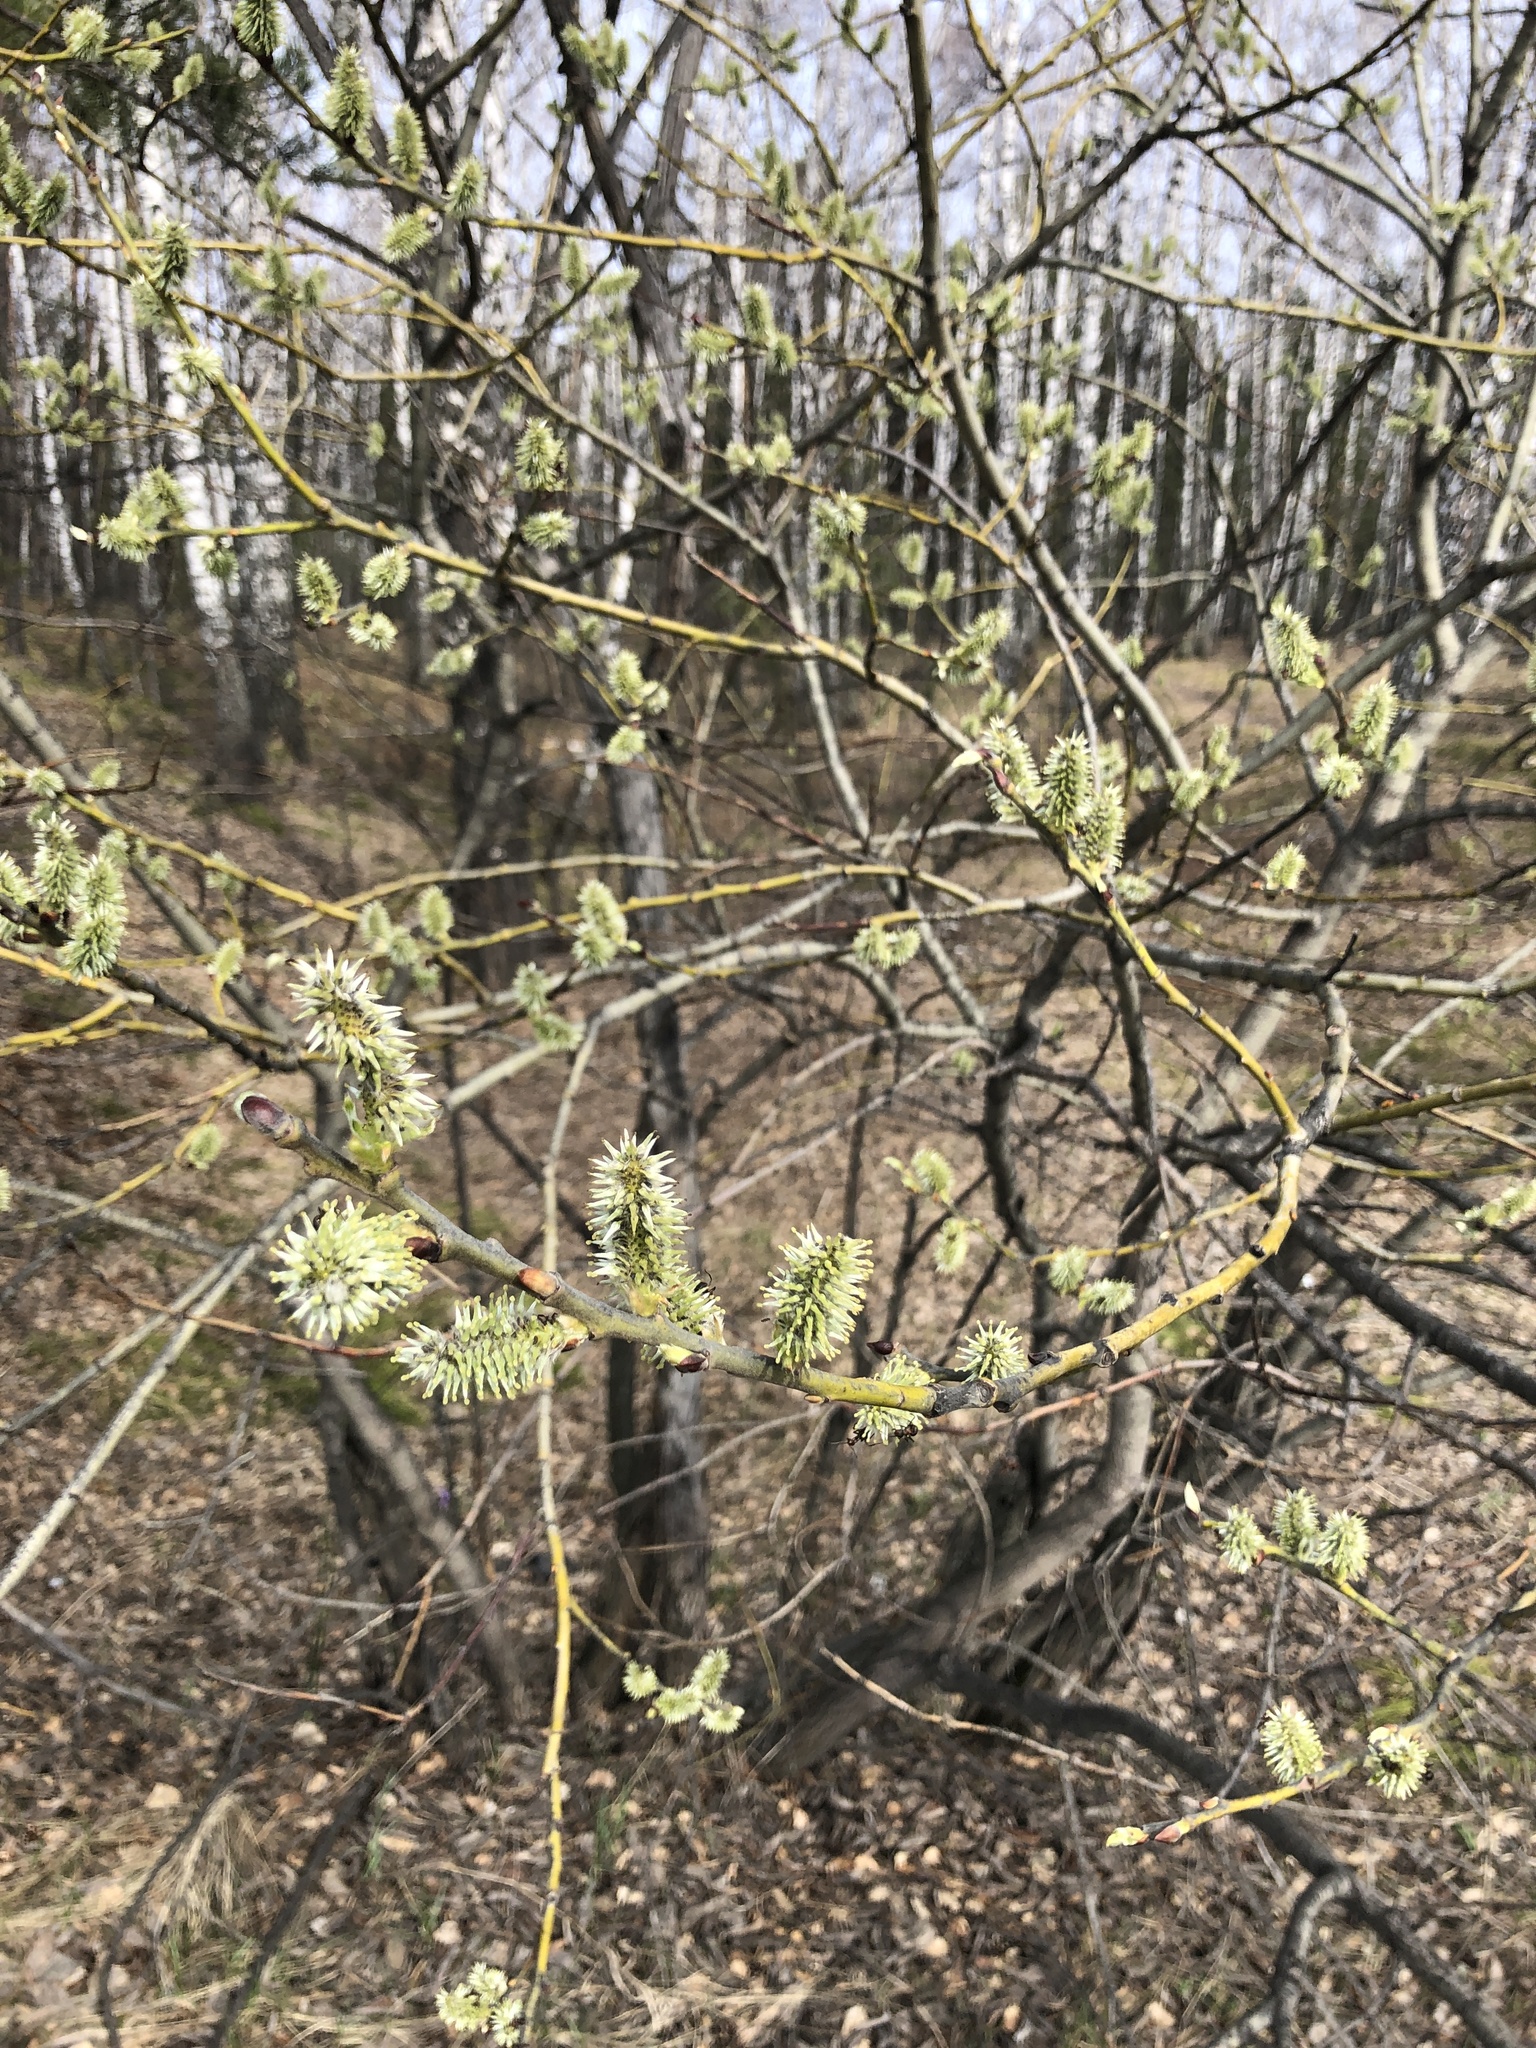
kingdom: Plantae
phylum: Tracheophyta
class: Magnoliopsida
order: Malpighiales
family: Salicaceae
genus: Salix
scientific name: Salix caprea
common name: Goat willow
